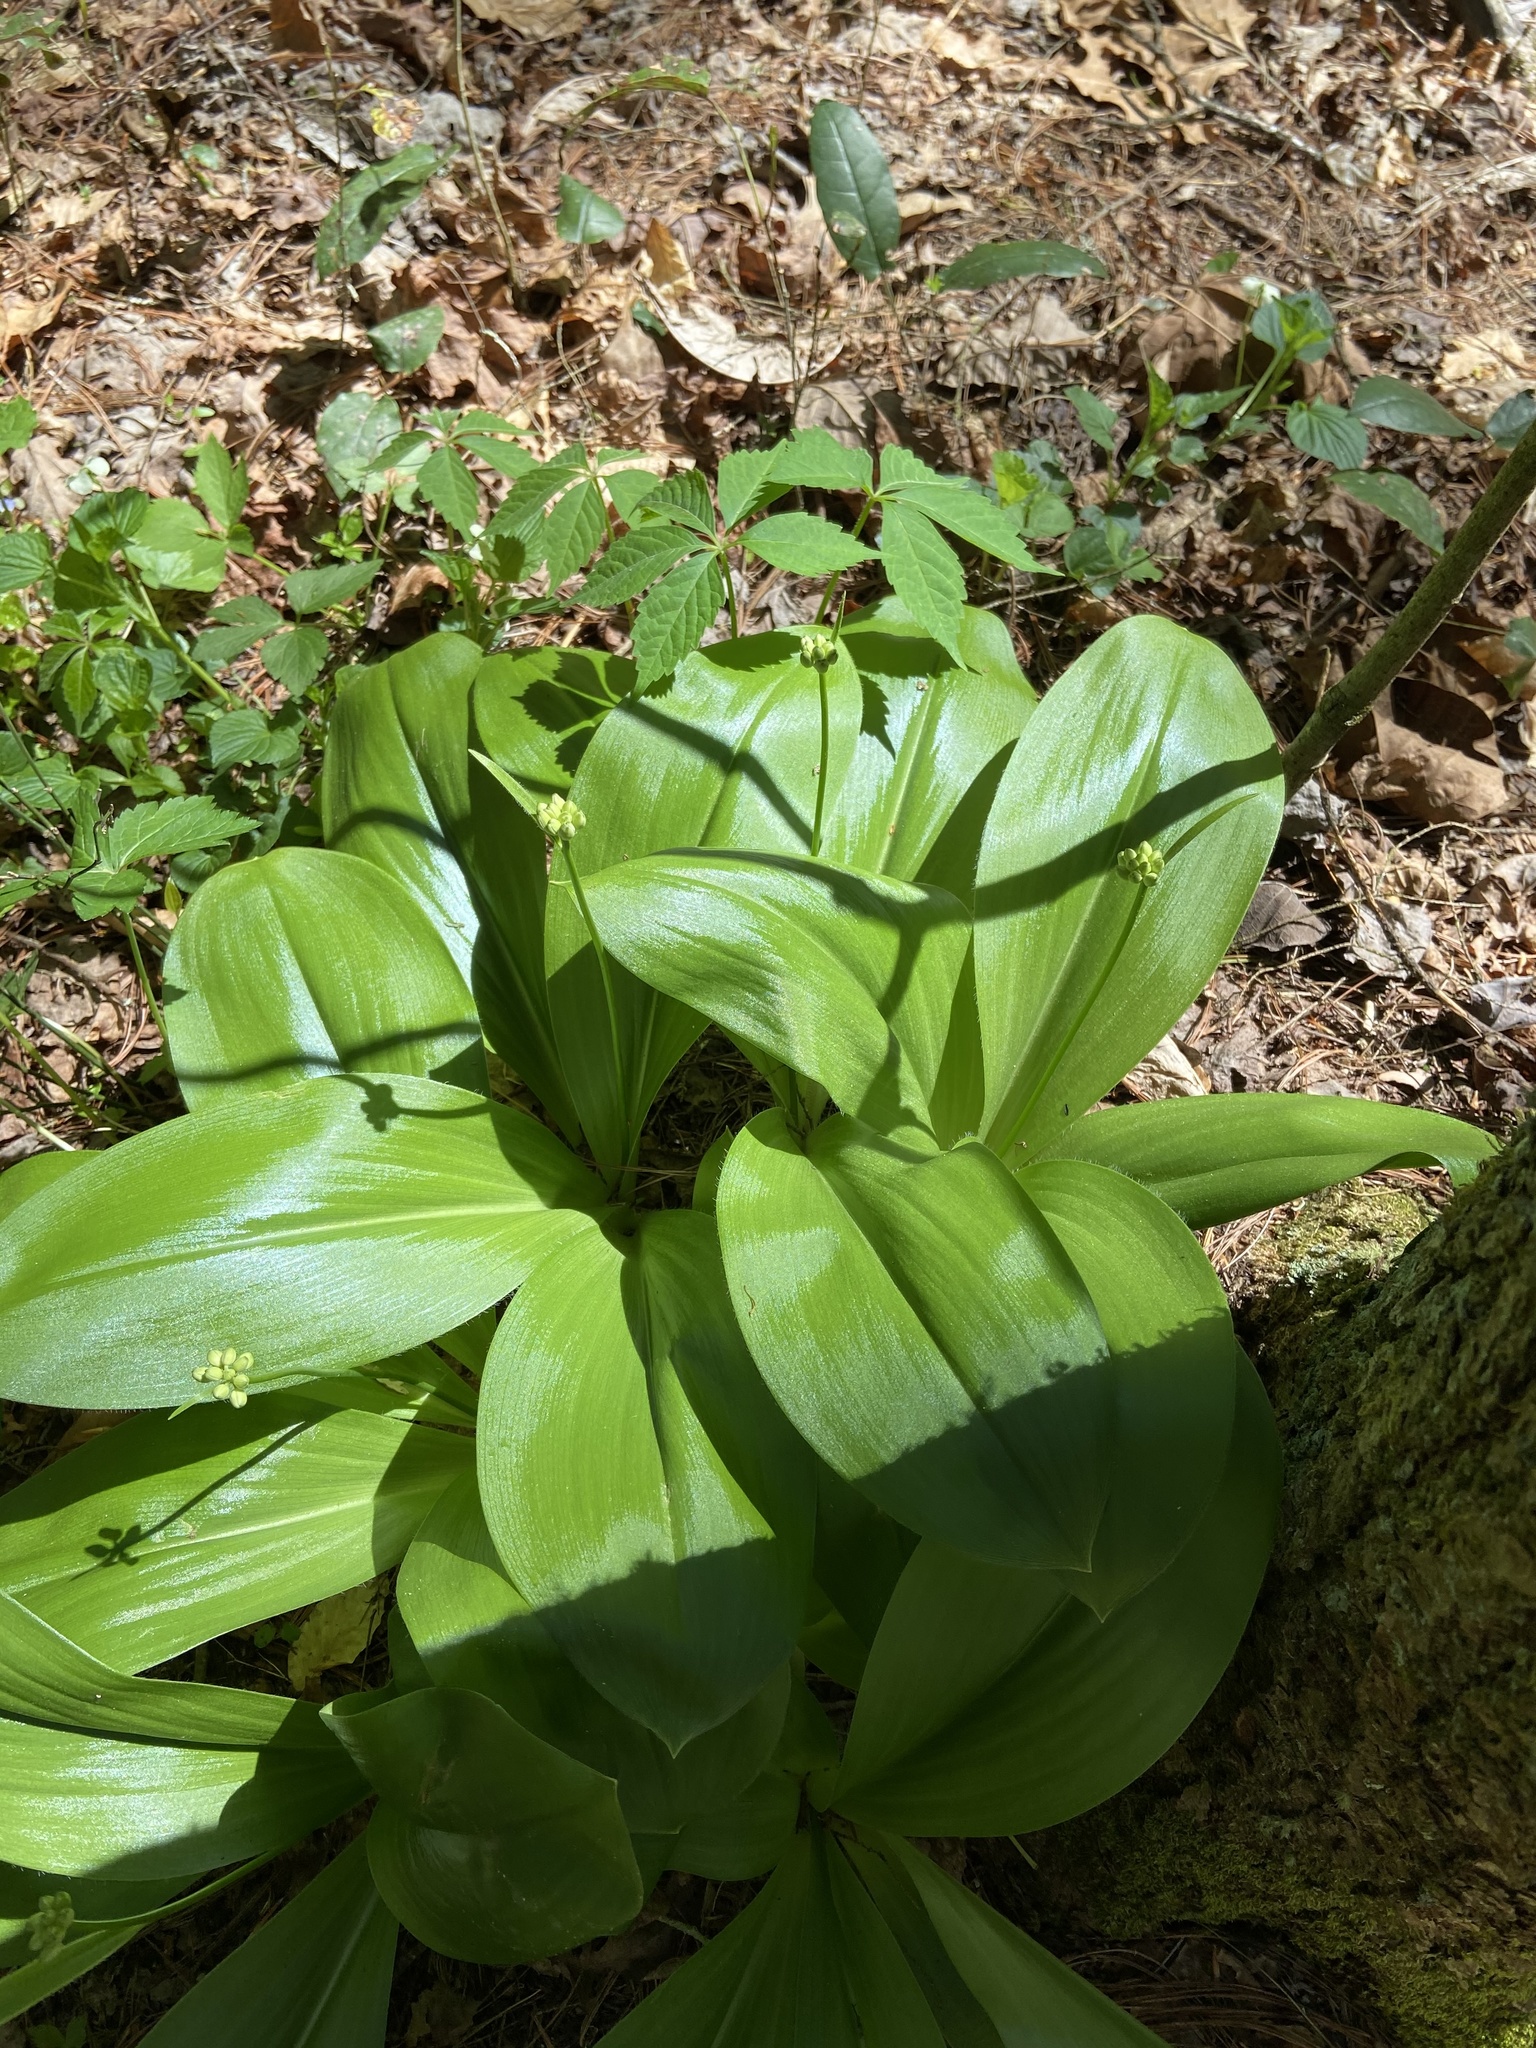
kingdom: Plantae
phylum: Tracheophyta
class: Liliopsida
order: Liliales
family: Liliaceae
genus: Clintonia
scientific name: Clintonia umbellulata
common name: Speckle wood-lily
